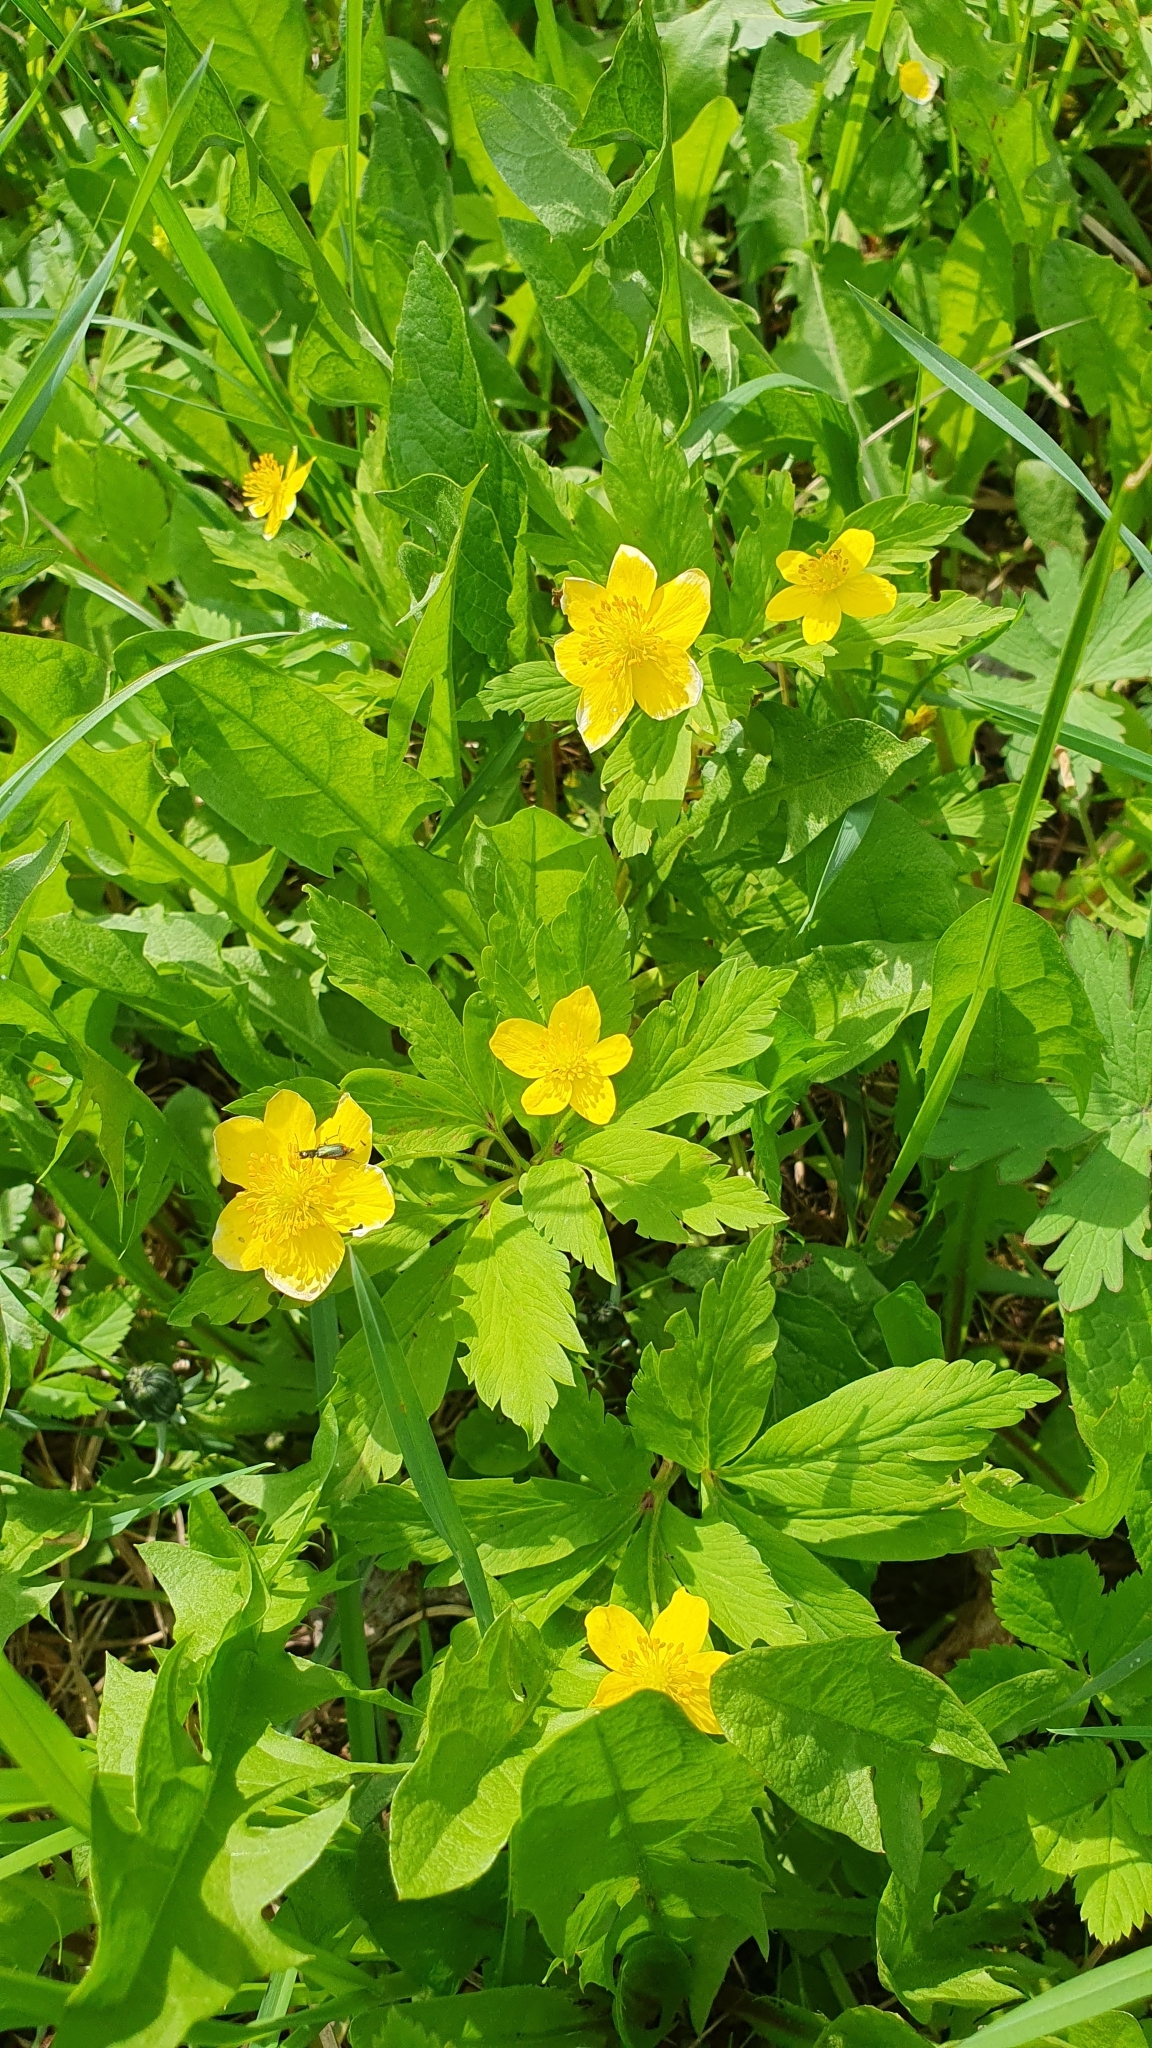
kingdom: Plantae
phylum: Tracheophyta
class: Magnoliopsida
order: Ranunculales
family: Ranunculaceae
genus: Anemone
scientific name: Anemone ranunculoides
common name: Yellow anemone
